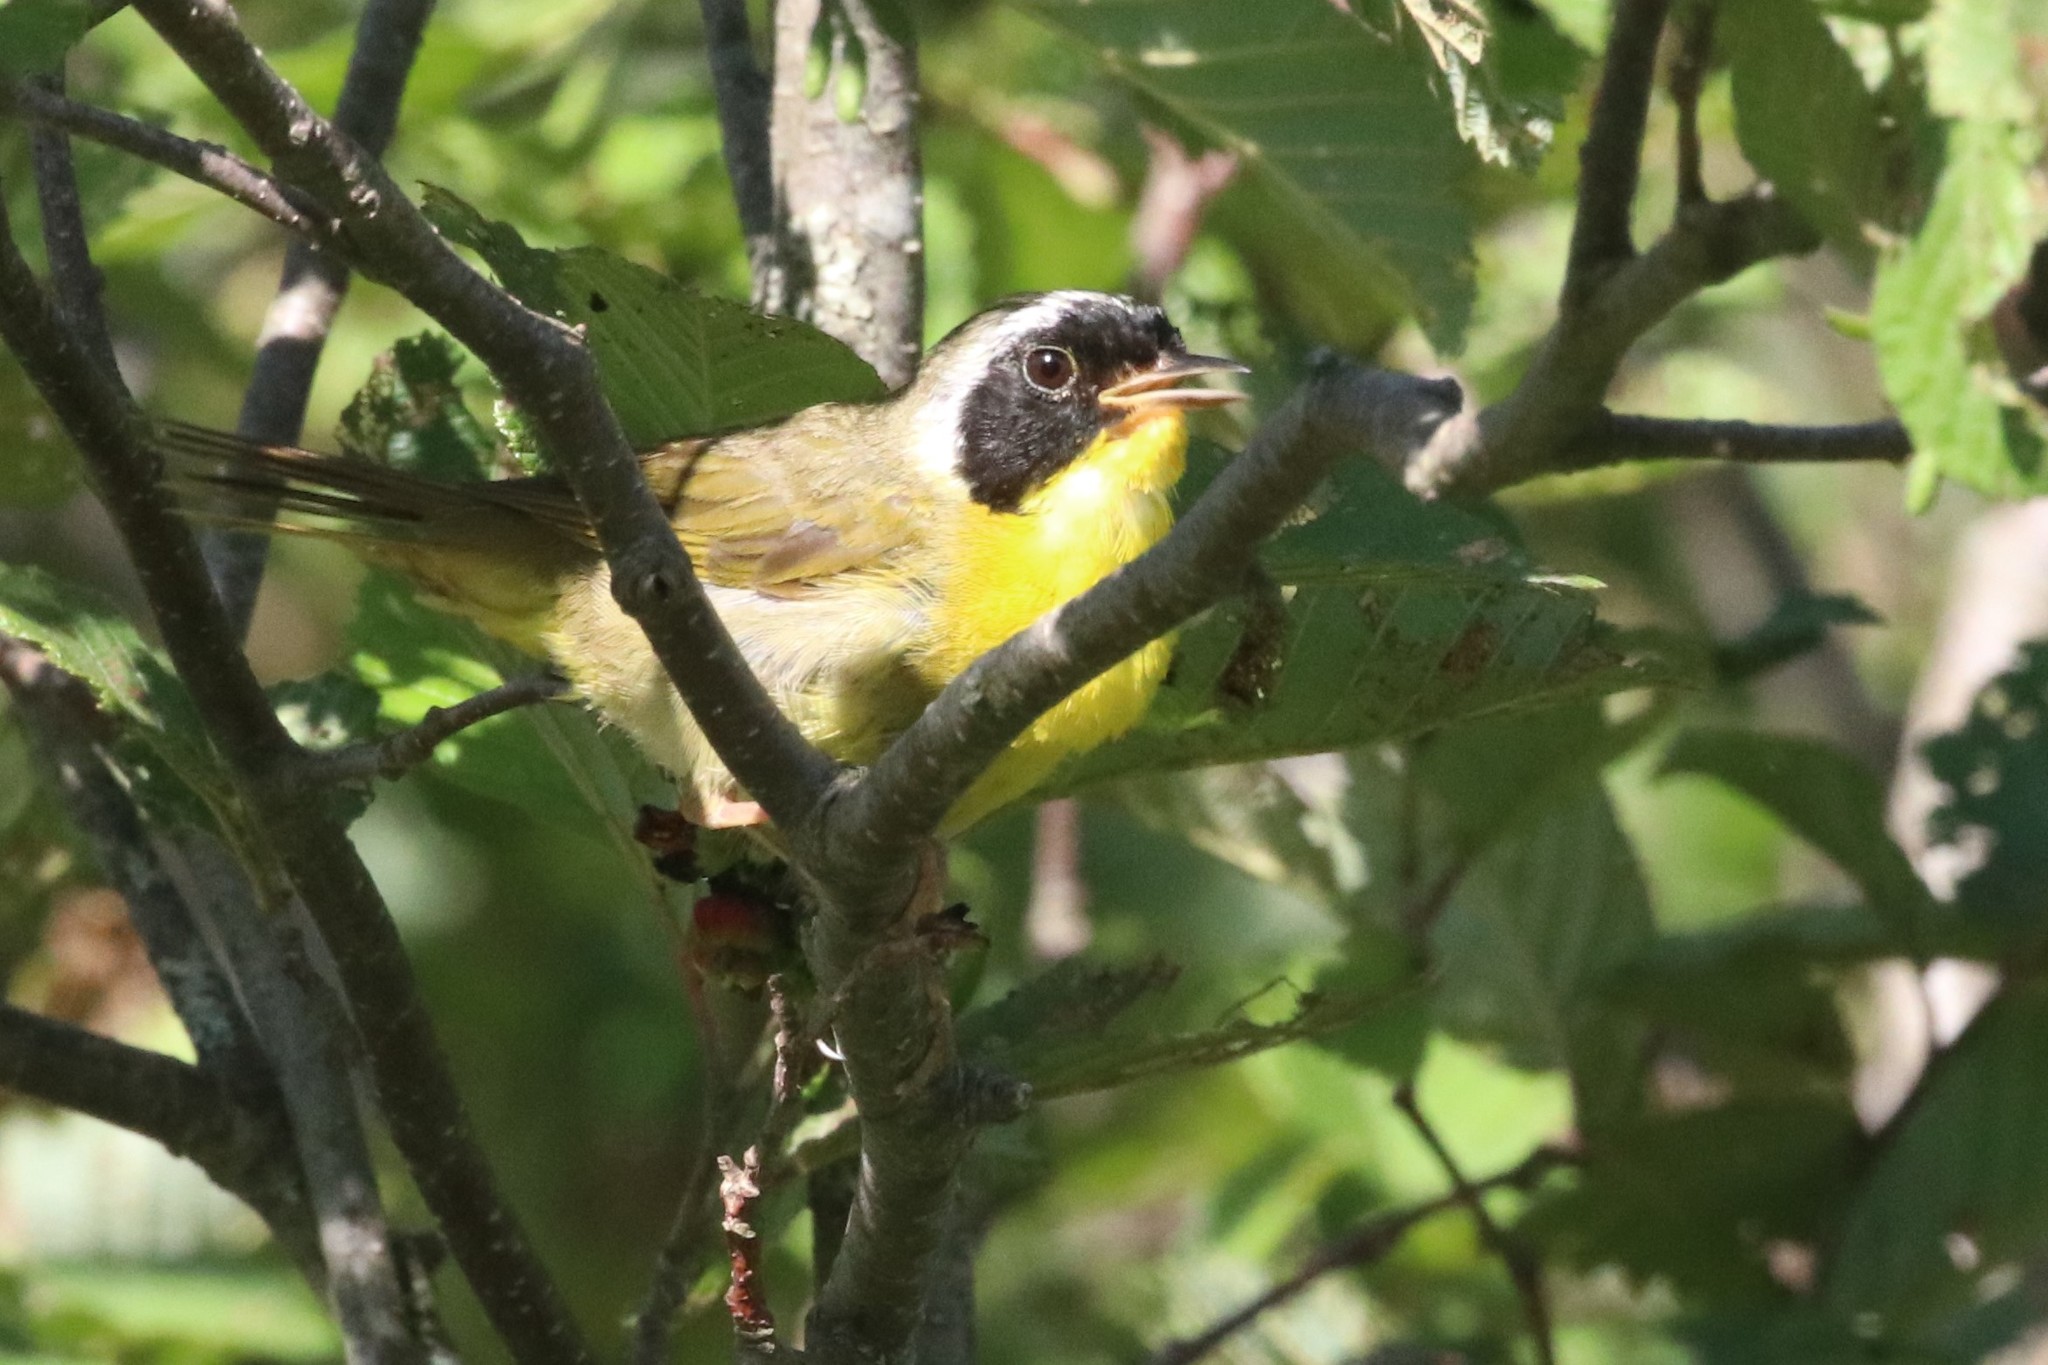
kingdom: Animalia
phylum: Chordata
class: Aves
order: Passeriformes
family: Parulidae
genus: Geothlypis
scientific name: Geothlypis trichas
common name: Common yellowthroat
